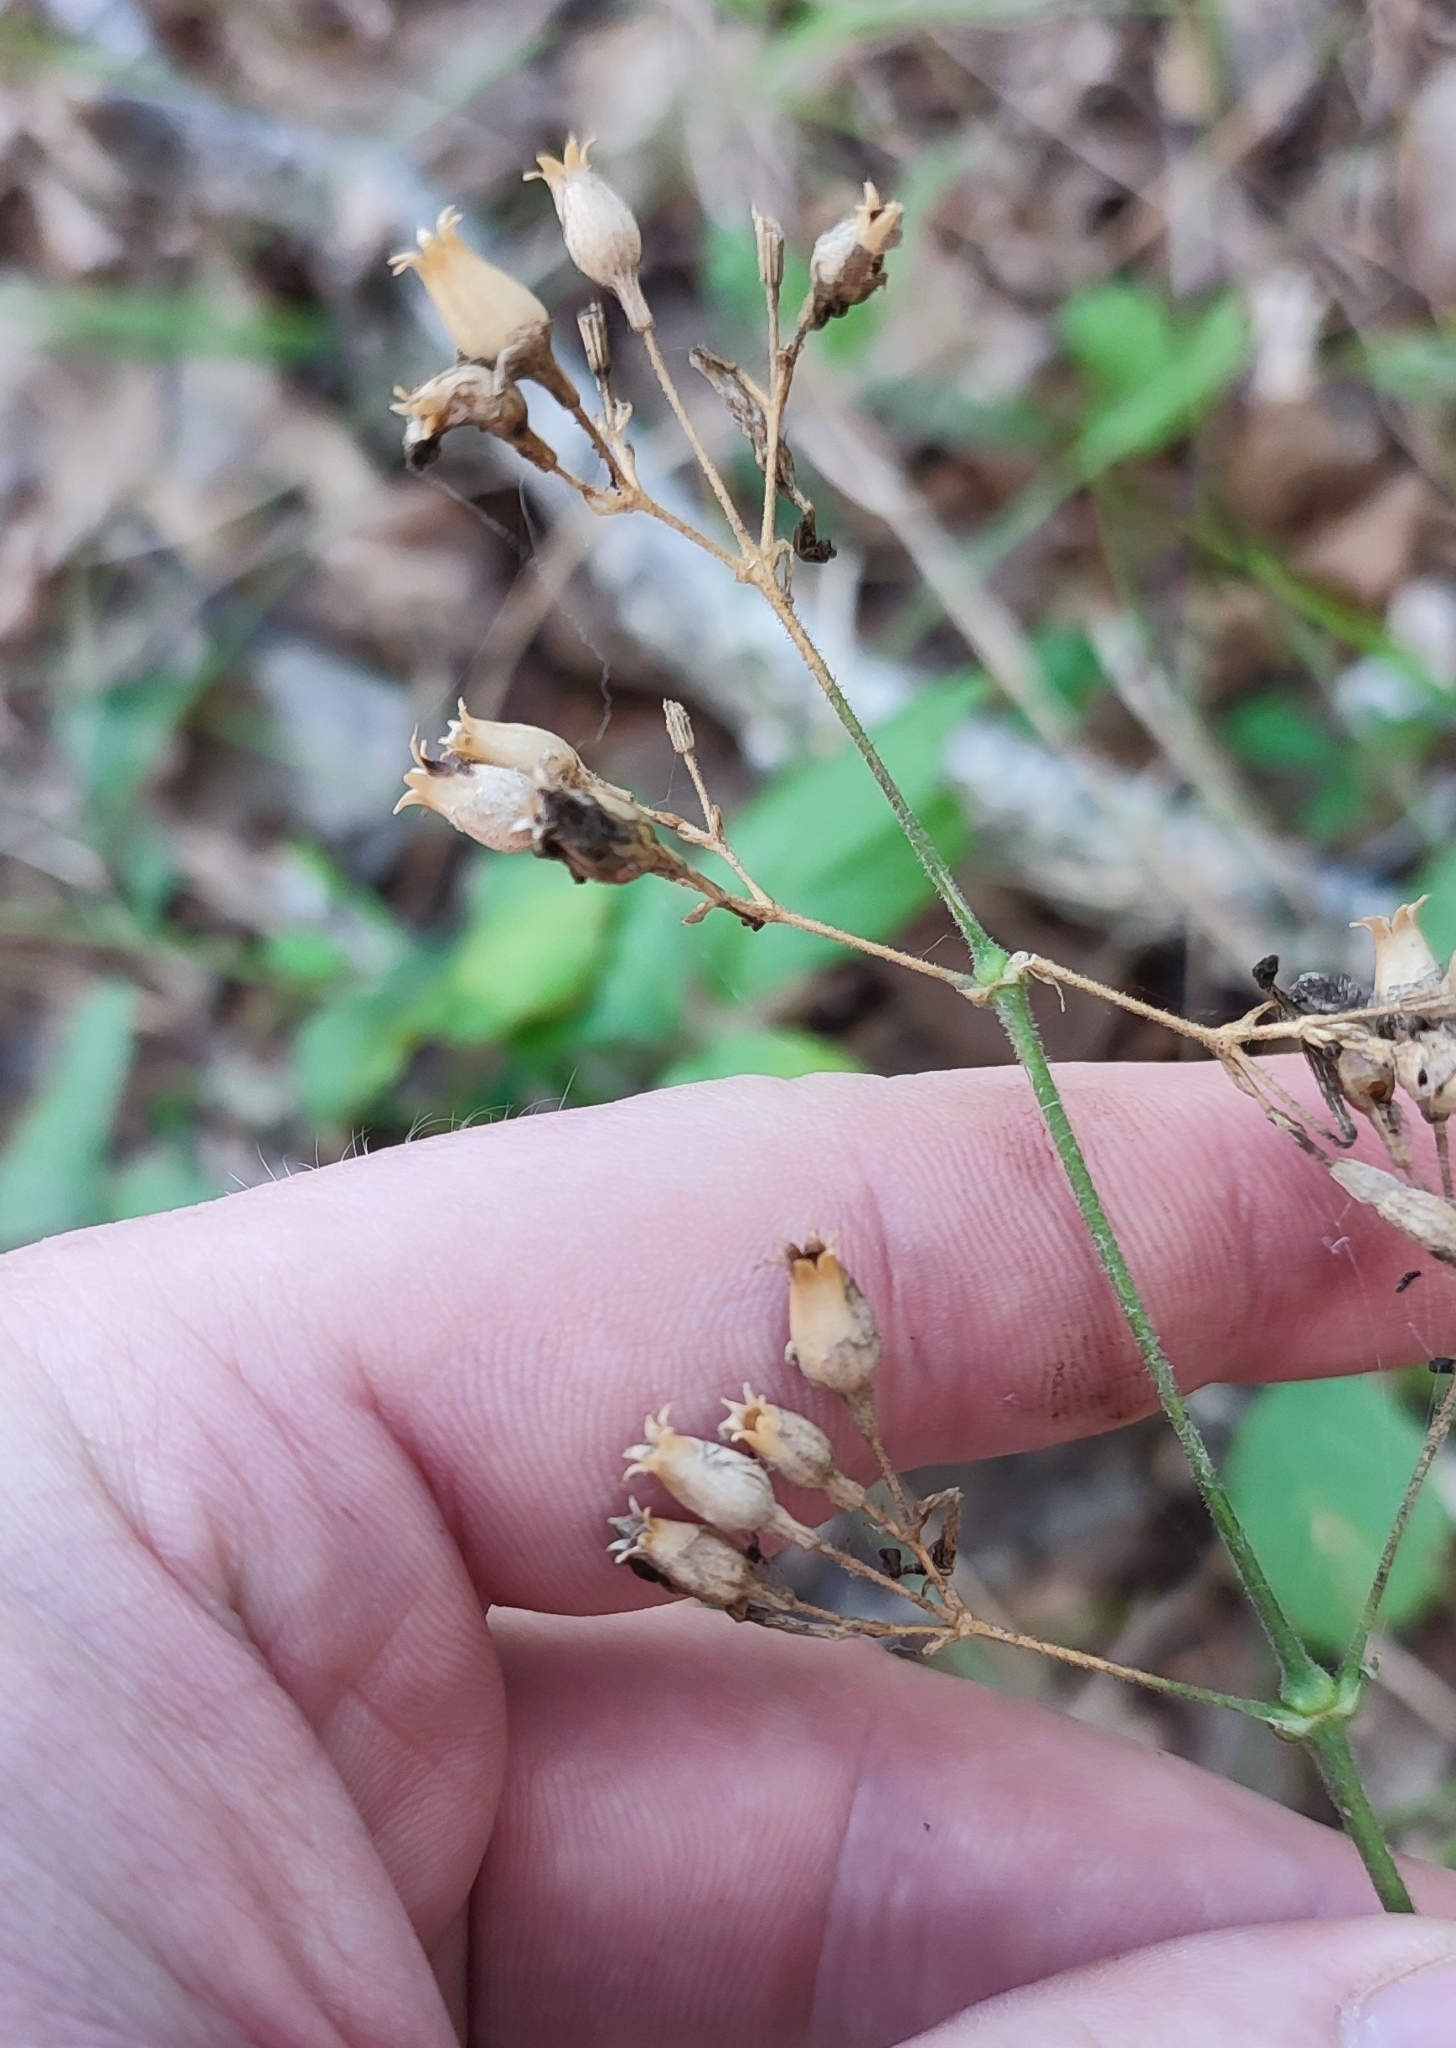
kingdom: Plantae
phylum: Tracheophyta
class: Magnoliopsida
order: Caryophyllales
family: Caryophyllaceae
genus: Silene
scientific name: Silene nutans
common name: Nottingham catchfly
